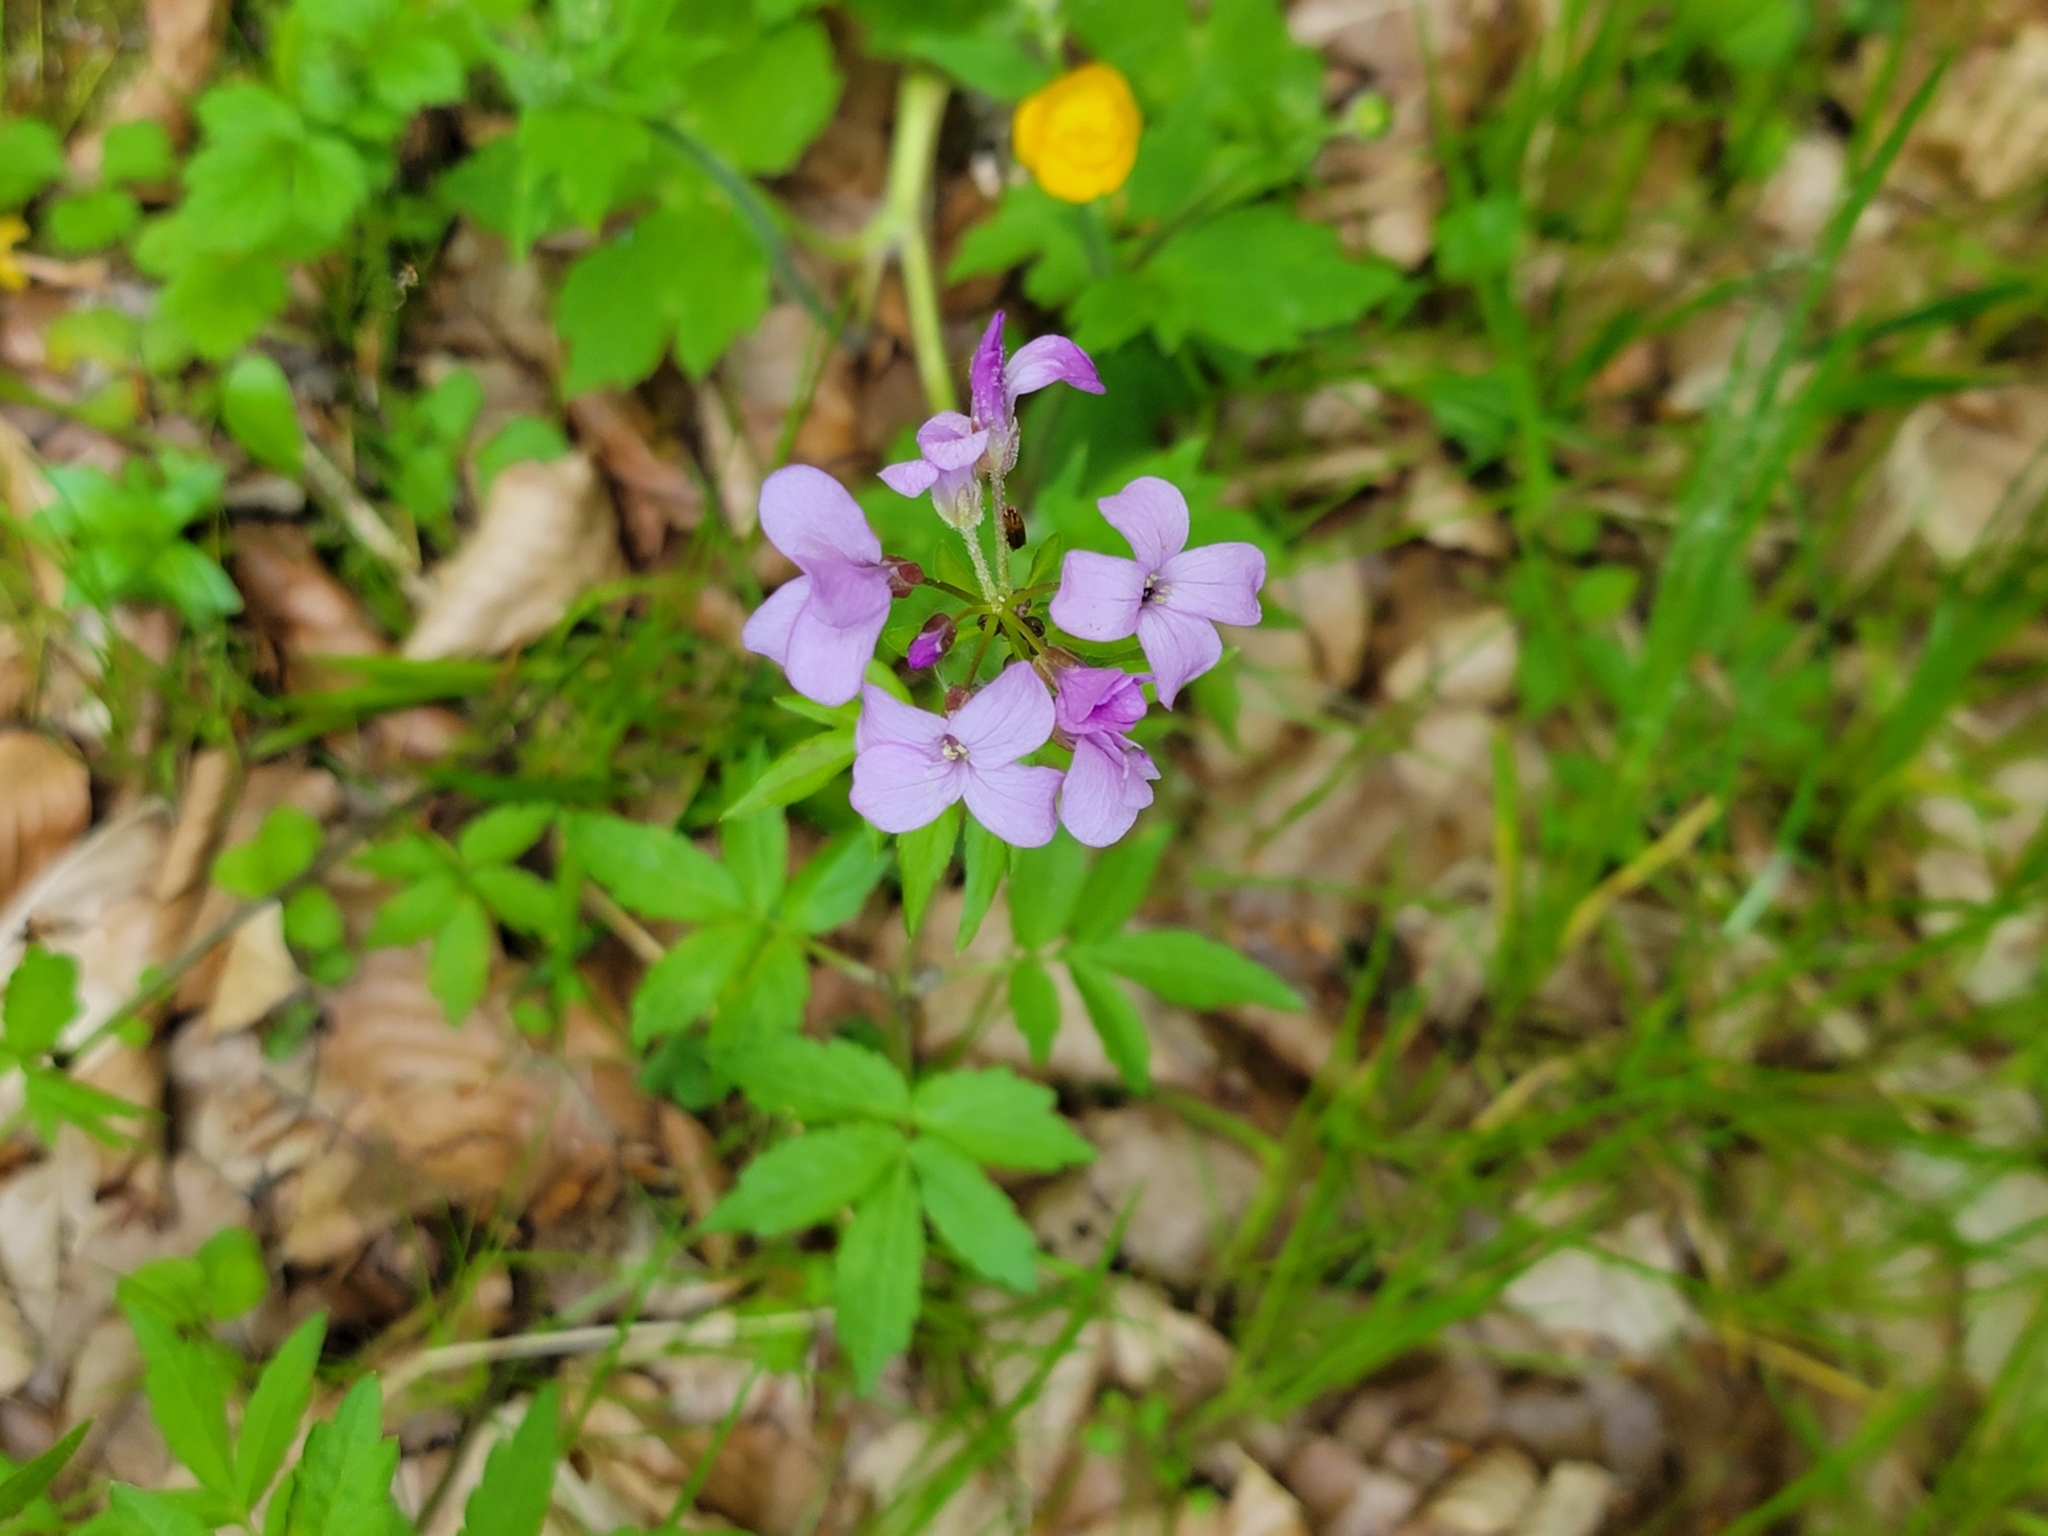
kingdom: Plantae
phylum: Tracheophyta
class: Magnoliopsida
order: Brassicales
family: Brassicaceae
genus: Cardamine
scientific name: Cardamine bulbifera
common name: Coralroot bittercress
